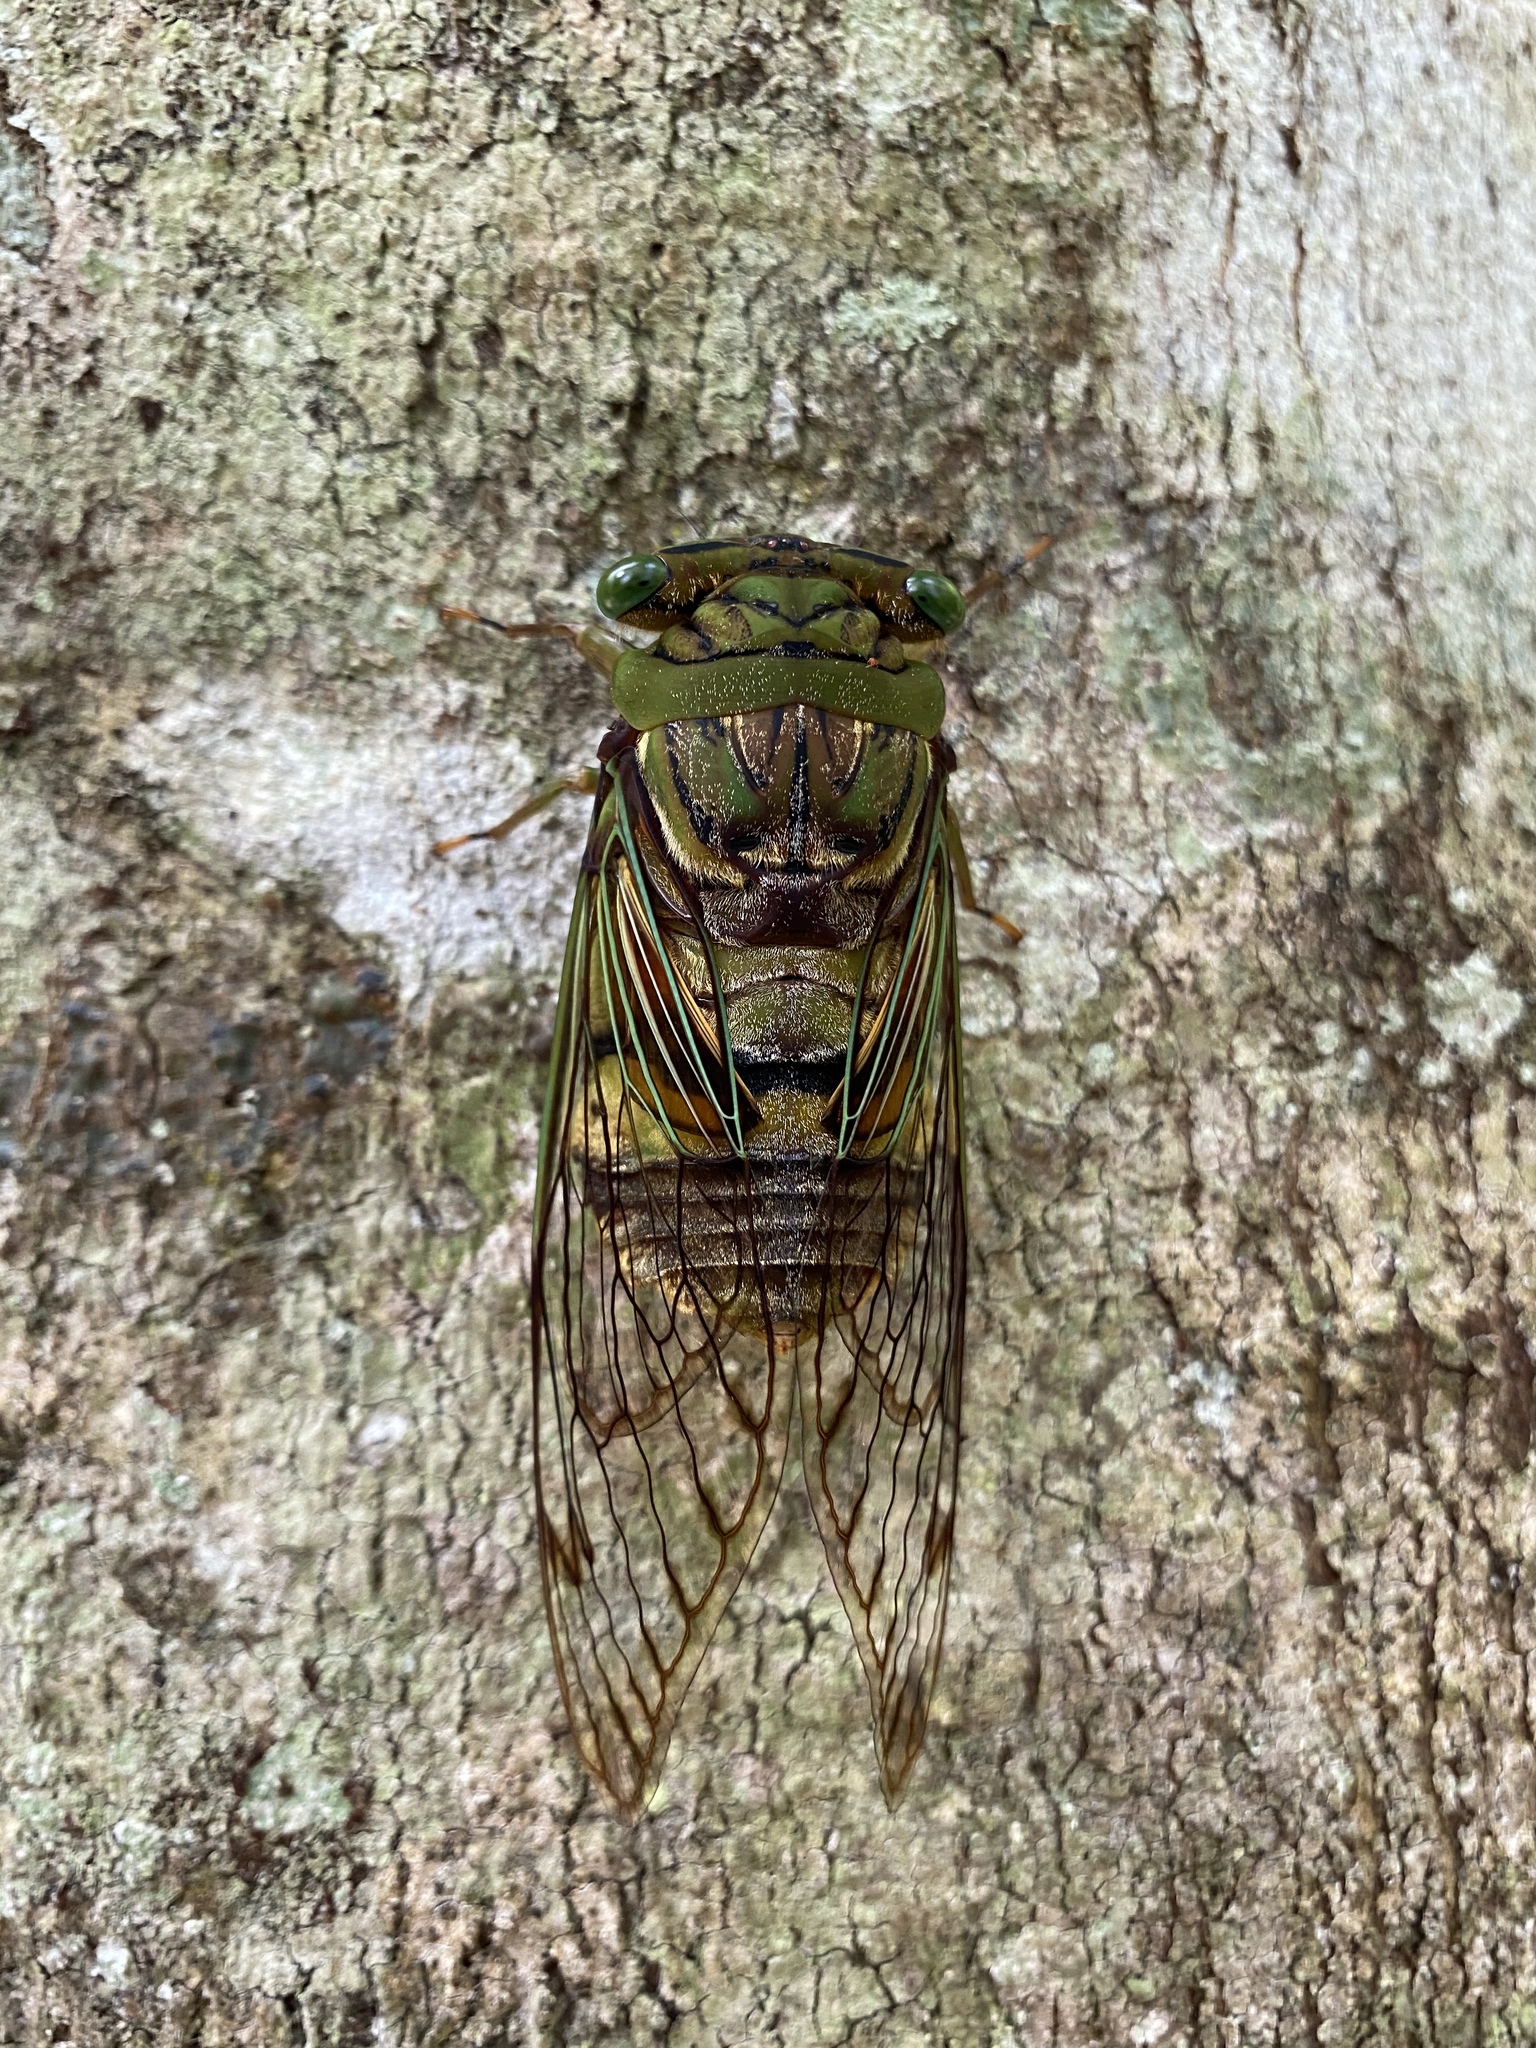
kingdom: Animalia
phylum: Arthropoda
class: Insecta
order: Hemiptera
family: Cicadidae
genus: Anapsaltoda
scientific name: Anapsaltoda pulchra
